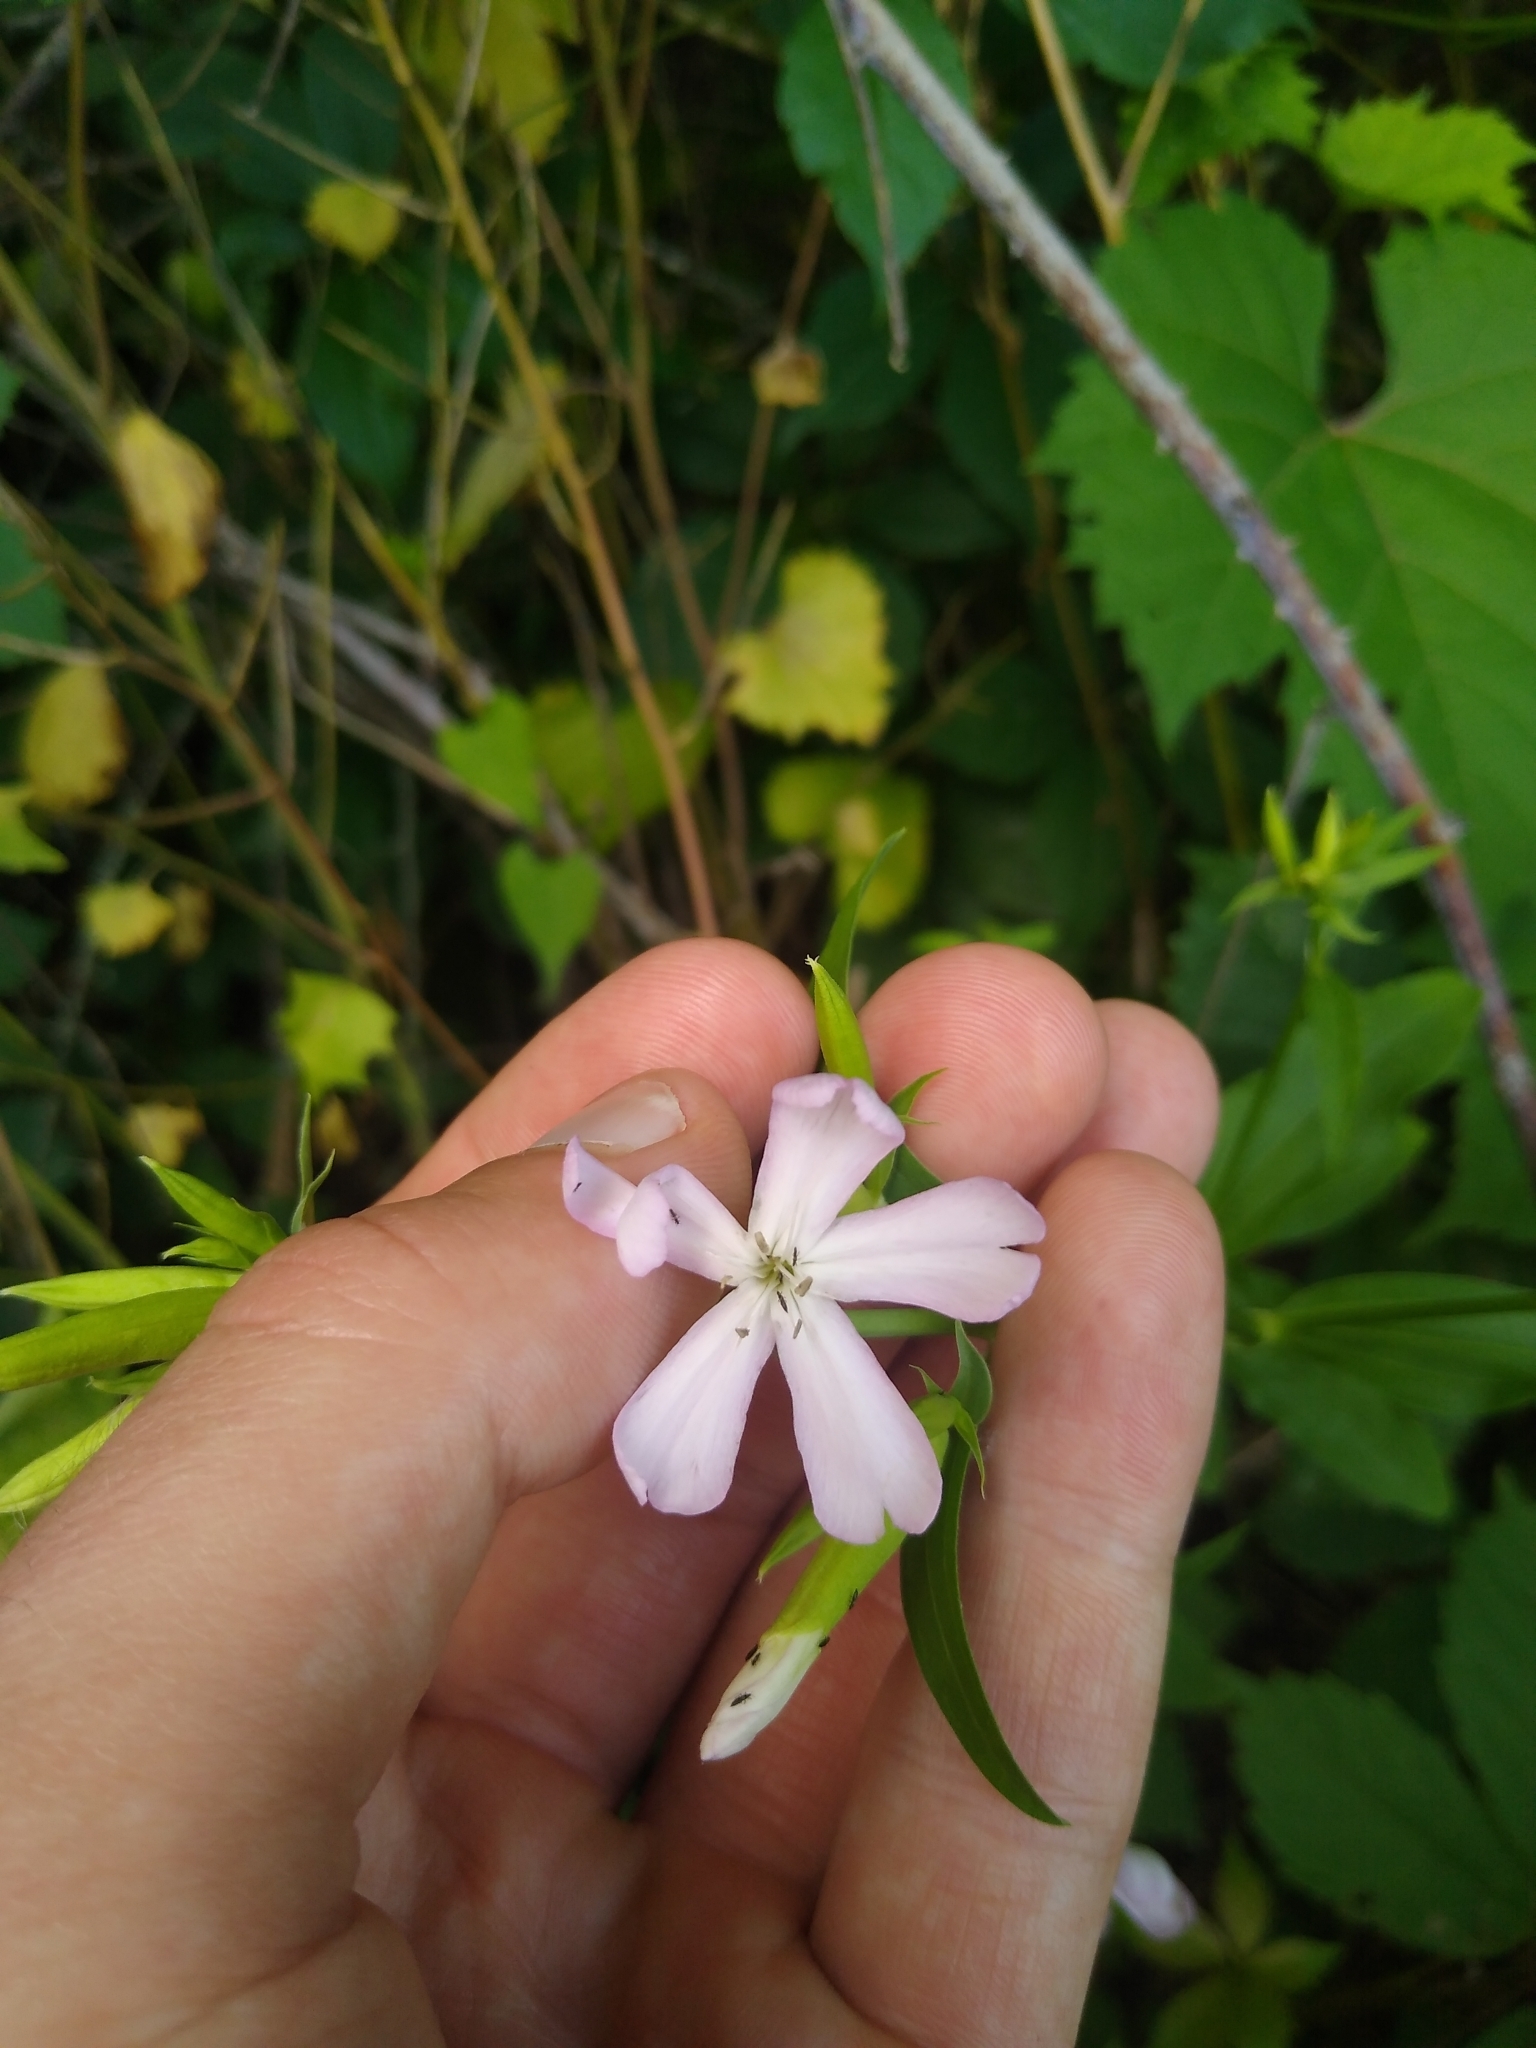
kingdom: Plantae
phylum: Tracheophyta
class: Magnoliopsida
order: Caryophyllales
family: Caryophyllaceae
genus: Saponaria
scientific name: Saponaria officinalis
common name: Soapwort
